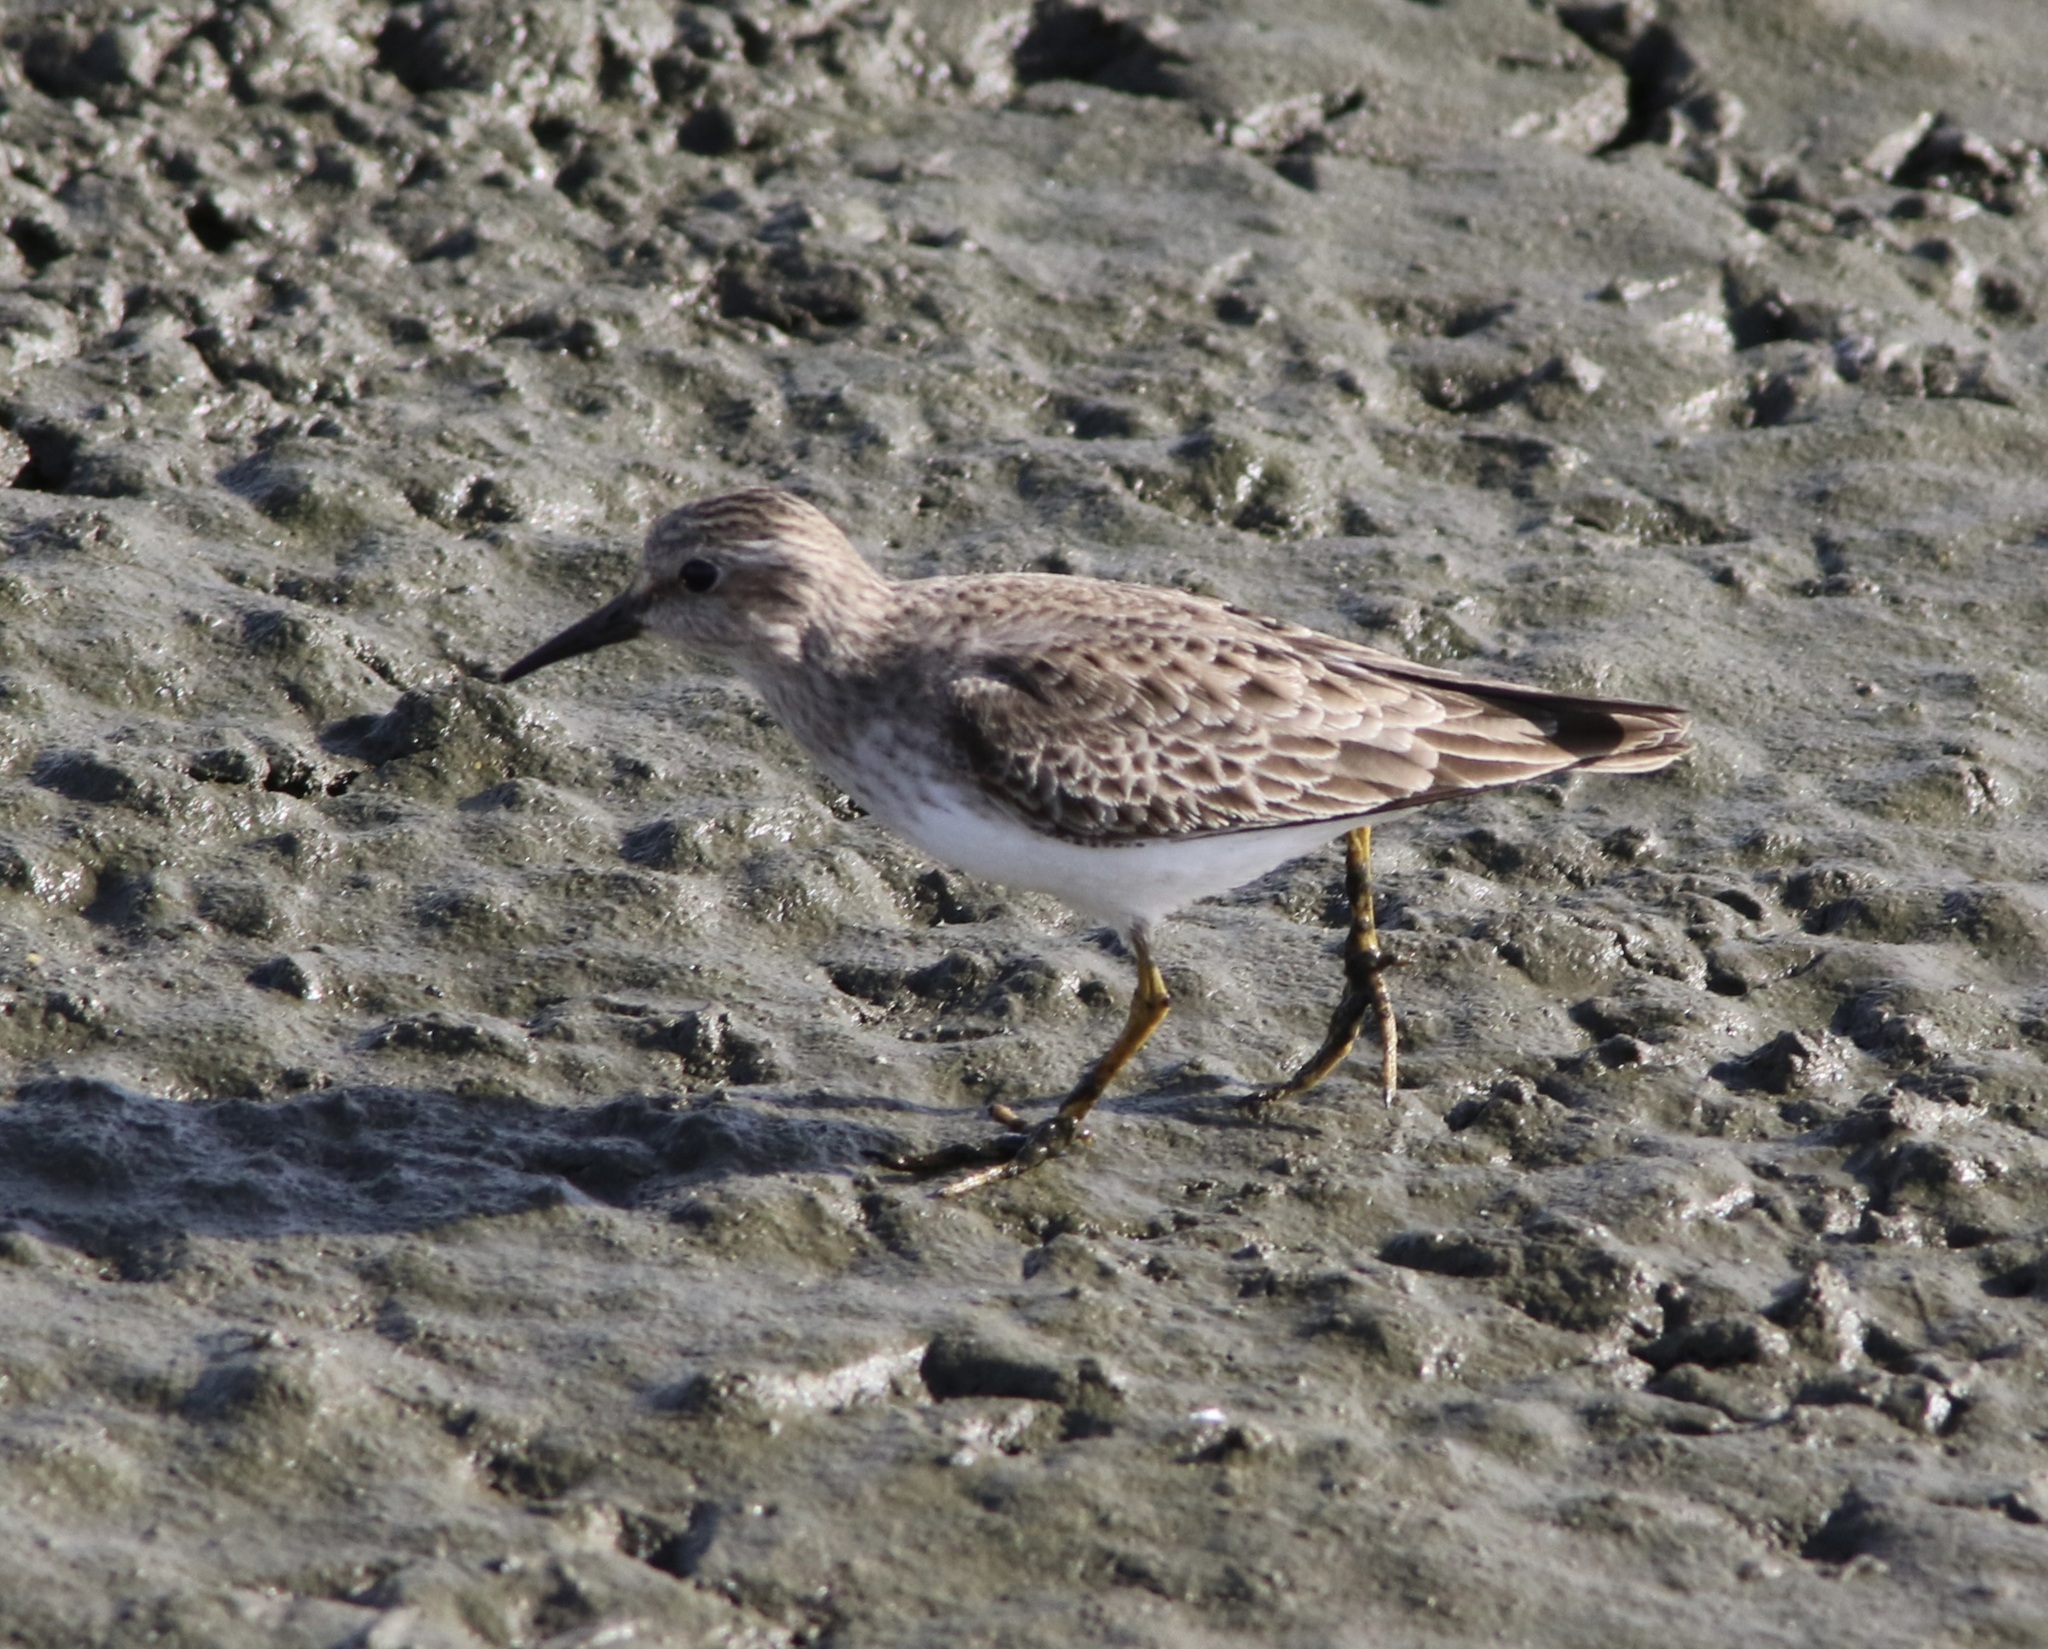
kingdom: Animalia
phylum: Chordata
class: Aves
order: Charadriiformes
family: Scolopacidae
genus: Calidris
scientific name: Calidris minutilla
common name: Least sandpiper
